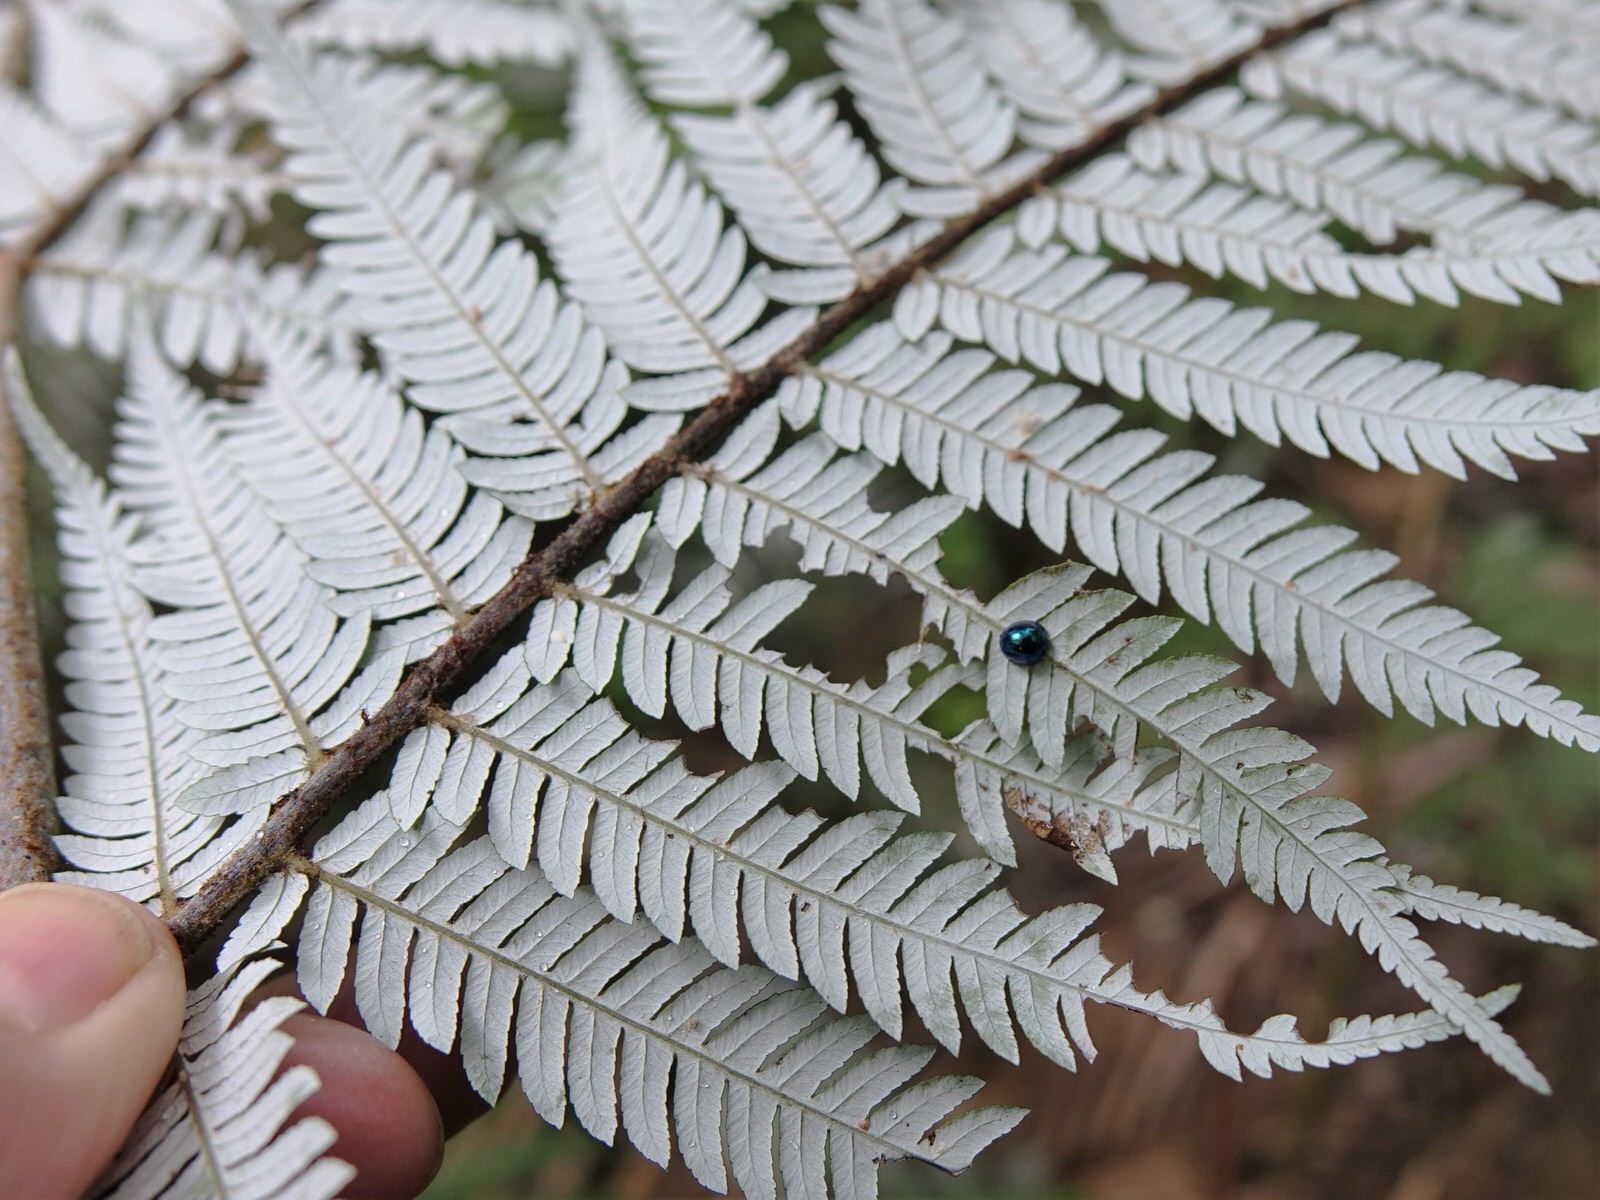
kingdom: Animalia
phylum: Arthropoda
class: Insecta
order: Coleoptera
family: Coccinellidae
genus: Halmus
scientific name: Halmus chalybeus
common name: Steel blue ladybird beetle
